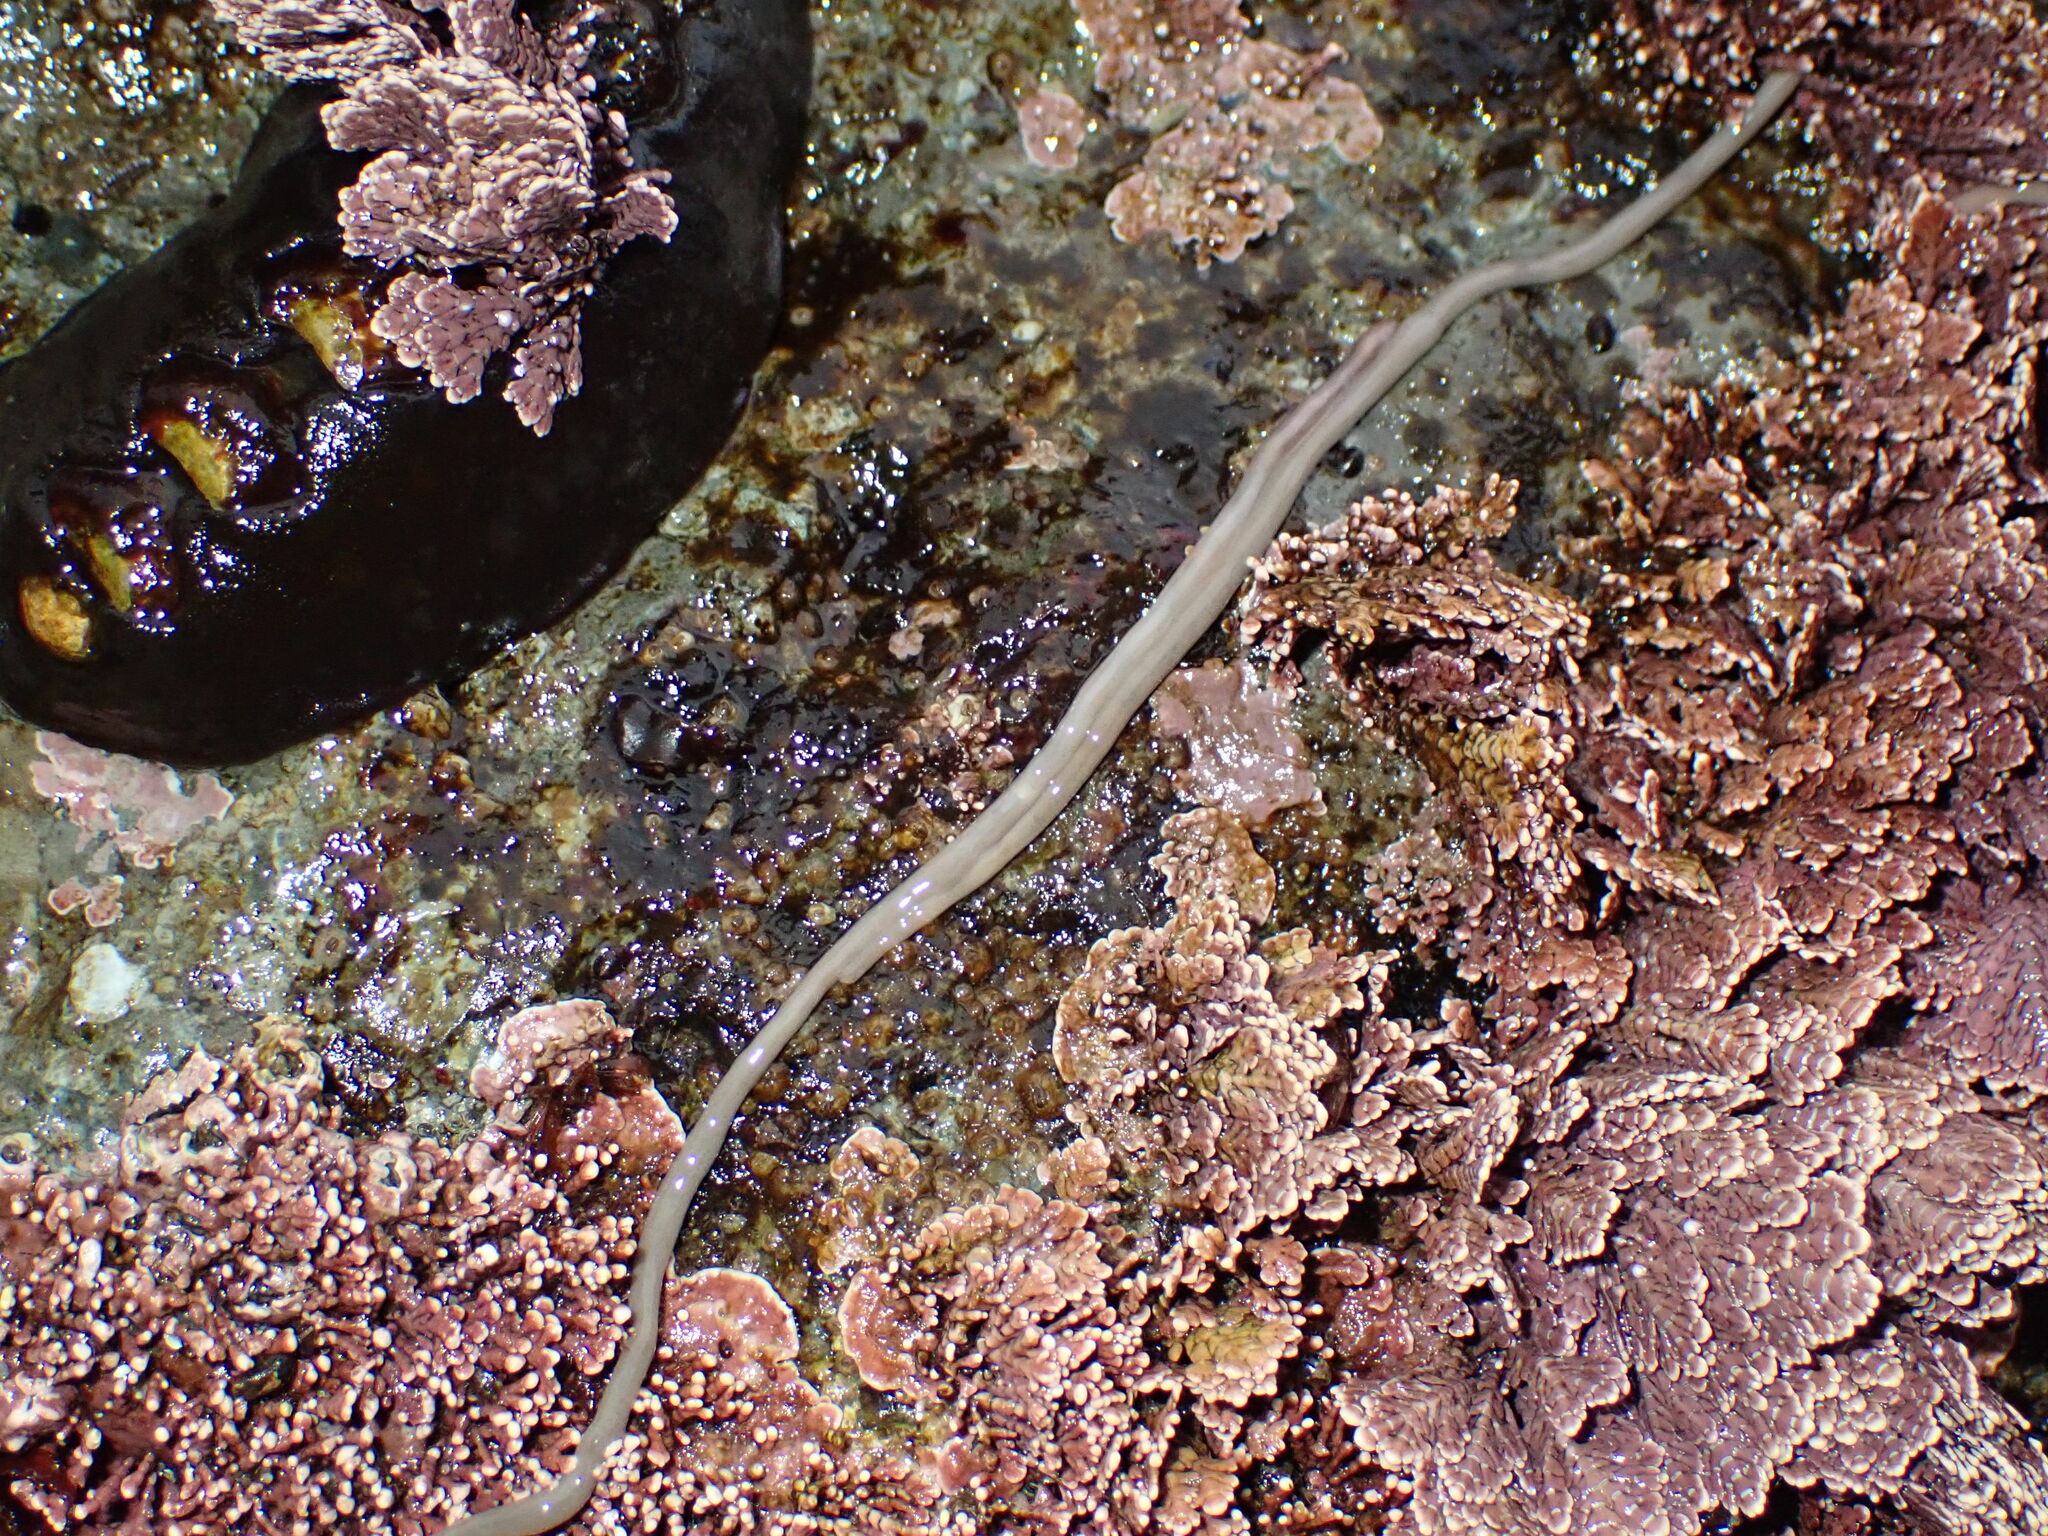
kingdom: Animalia
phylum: Nemertea
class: Hoplonemertea
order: Monostilifera
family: Neesiidae
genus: Paranemertes
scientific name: Paranemertes peregrina
